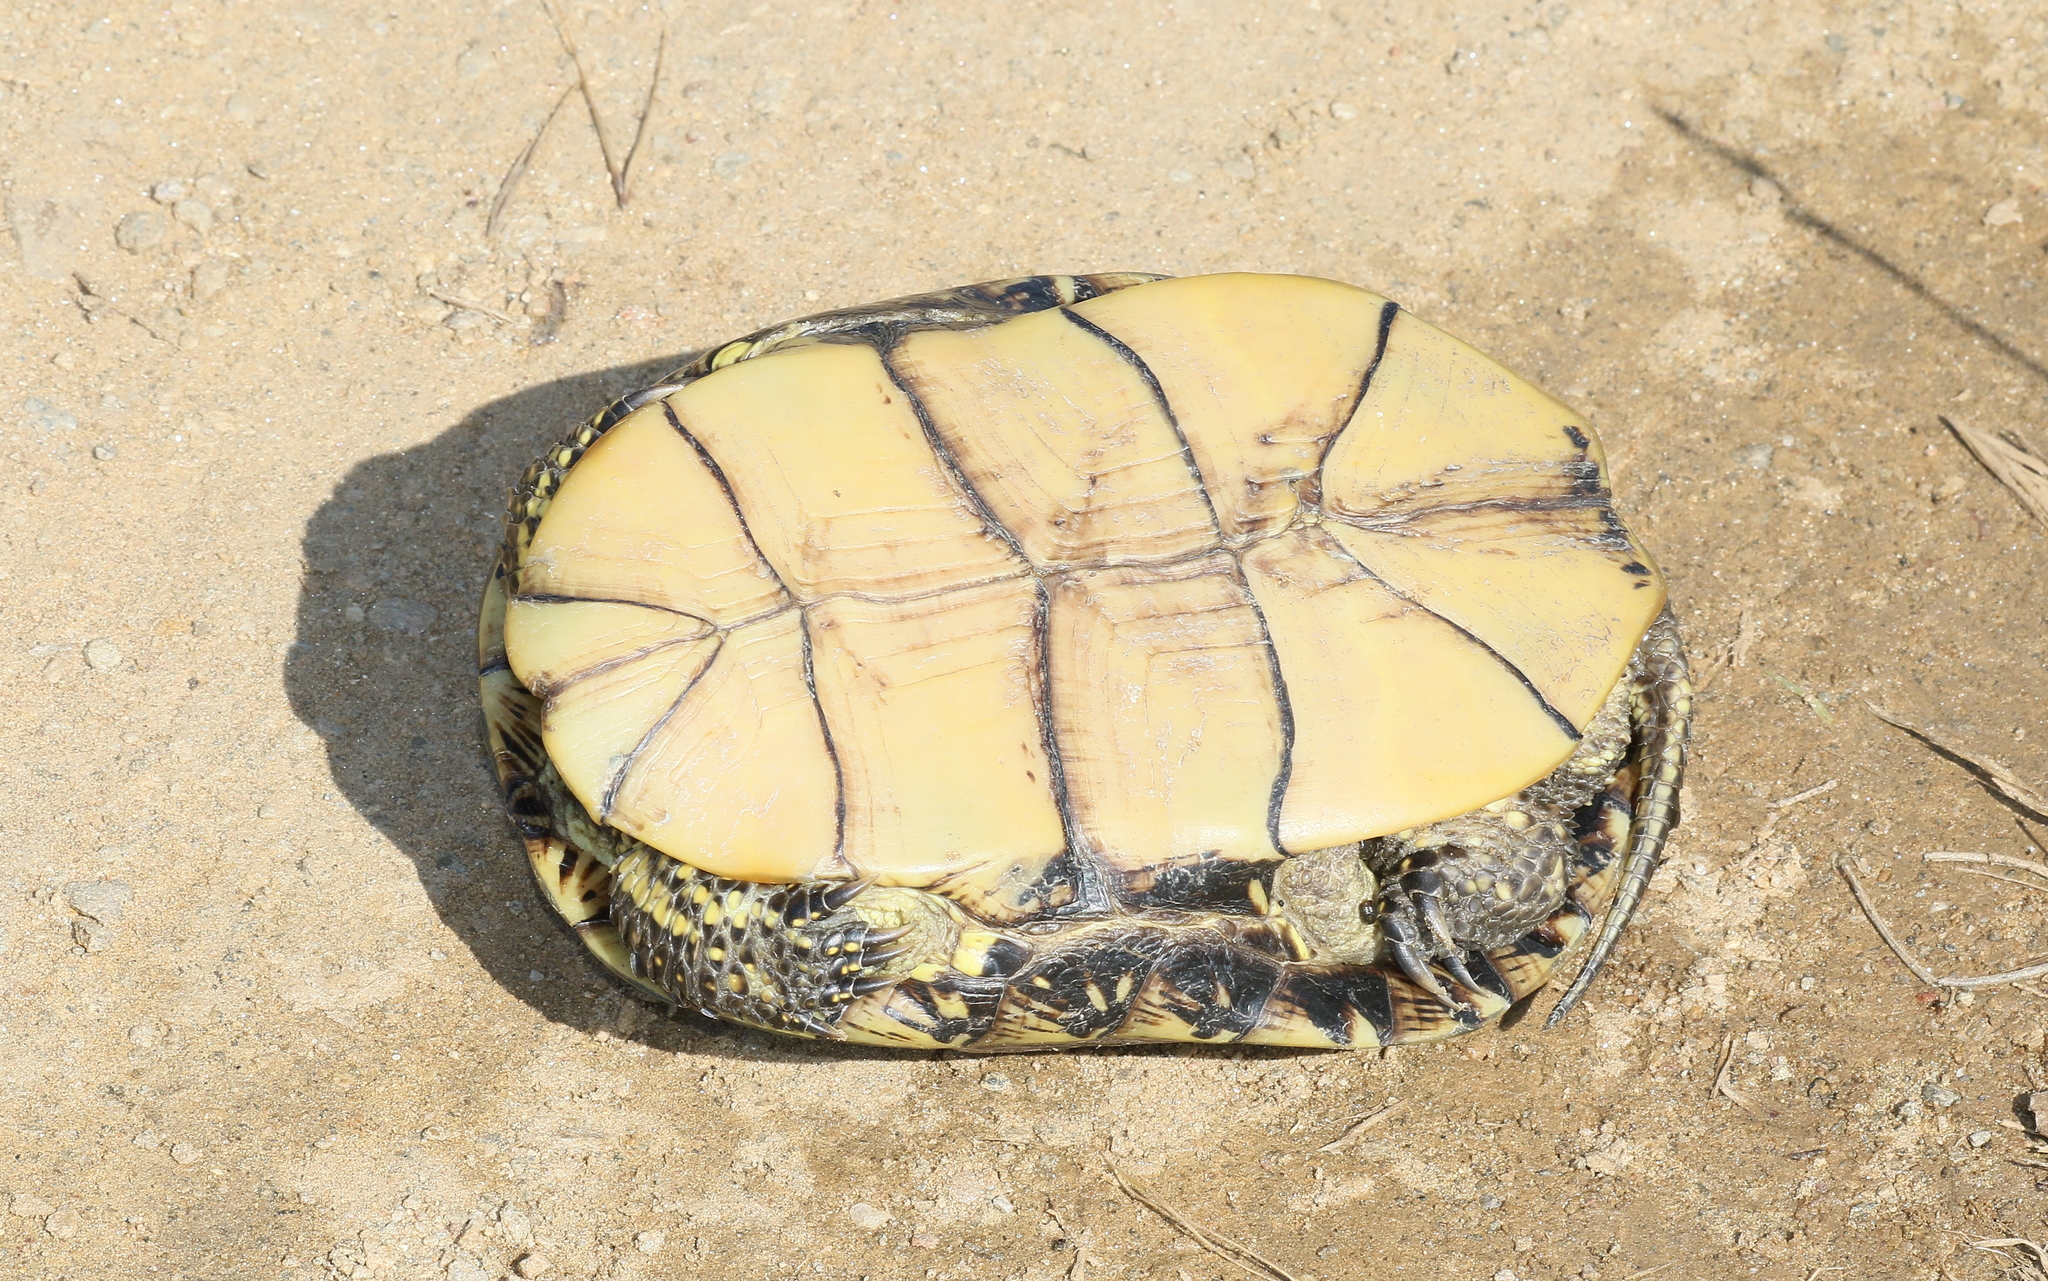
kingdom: Animalia
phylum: Chordata
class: Testudines
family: Emydidae
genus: Emys
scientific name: Emys orbicularis
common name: European pond turtle
